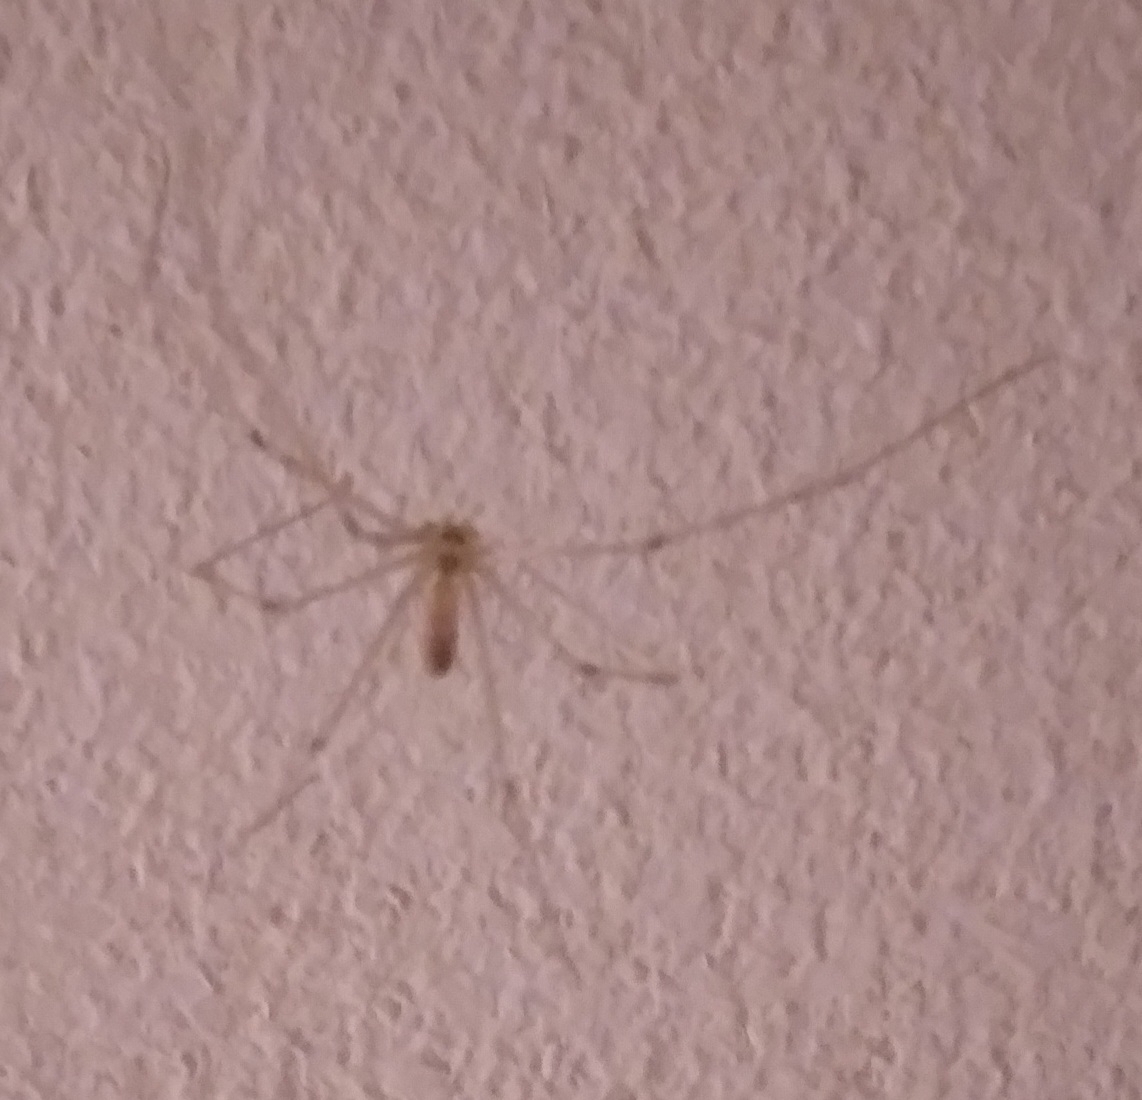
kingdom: Animalia
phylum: Arthropoda
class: Arachnida
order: Araneae
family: Pholcidae
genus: Pholcus
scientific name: Pholcus phalangioides
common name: Longbodied cellar spider
